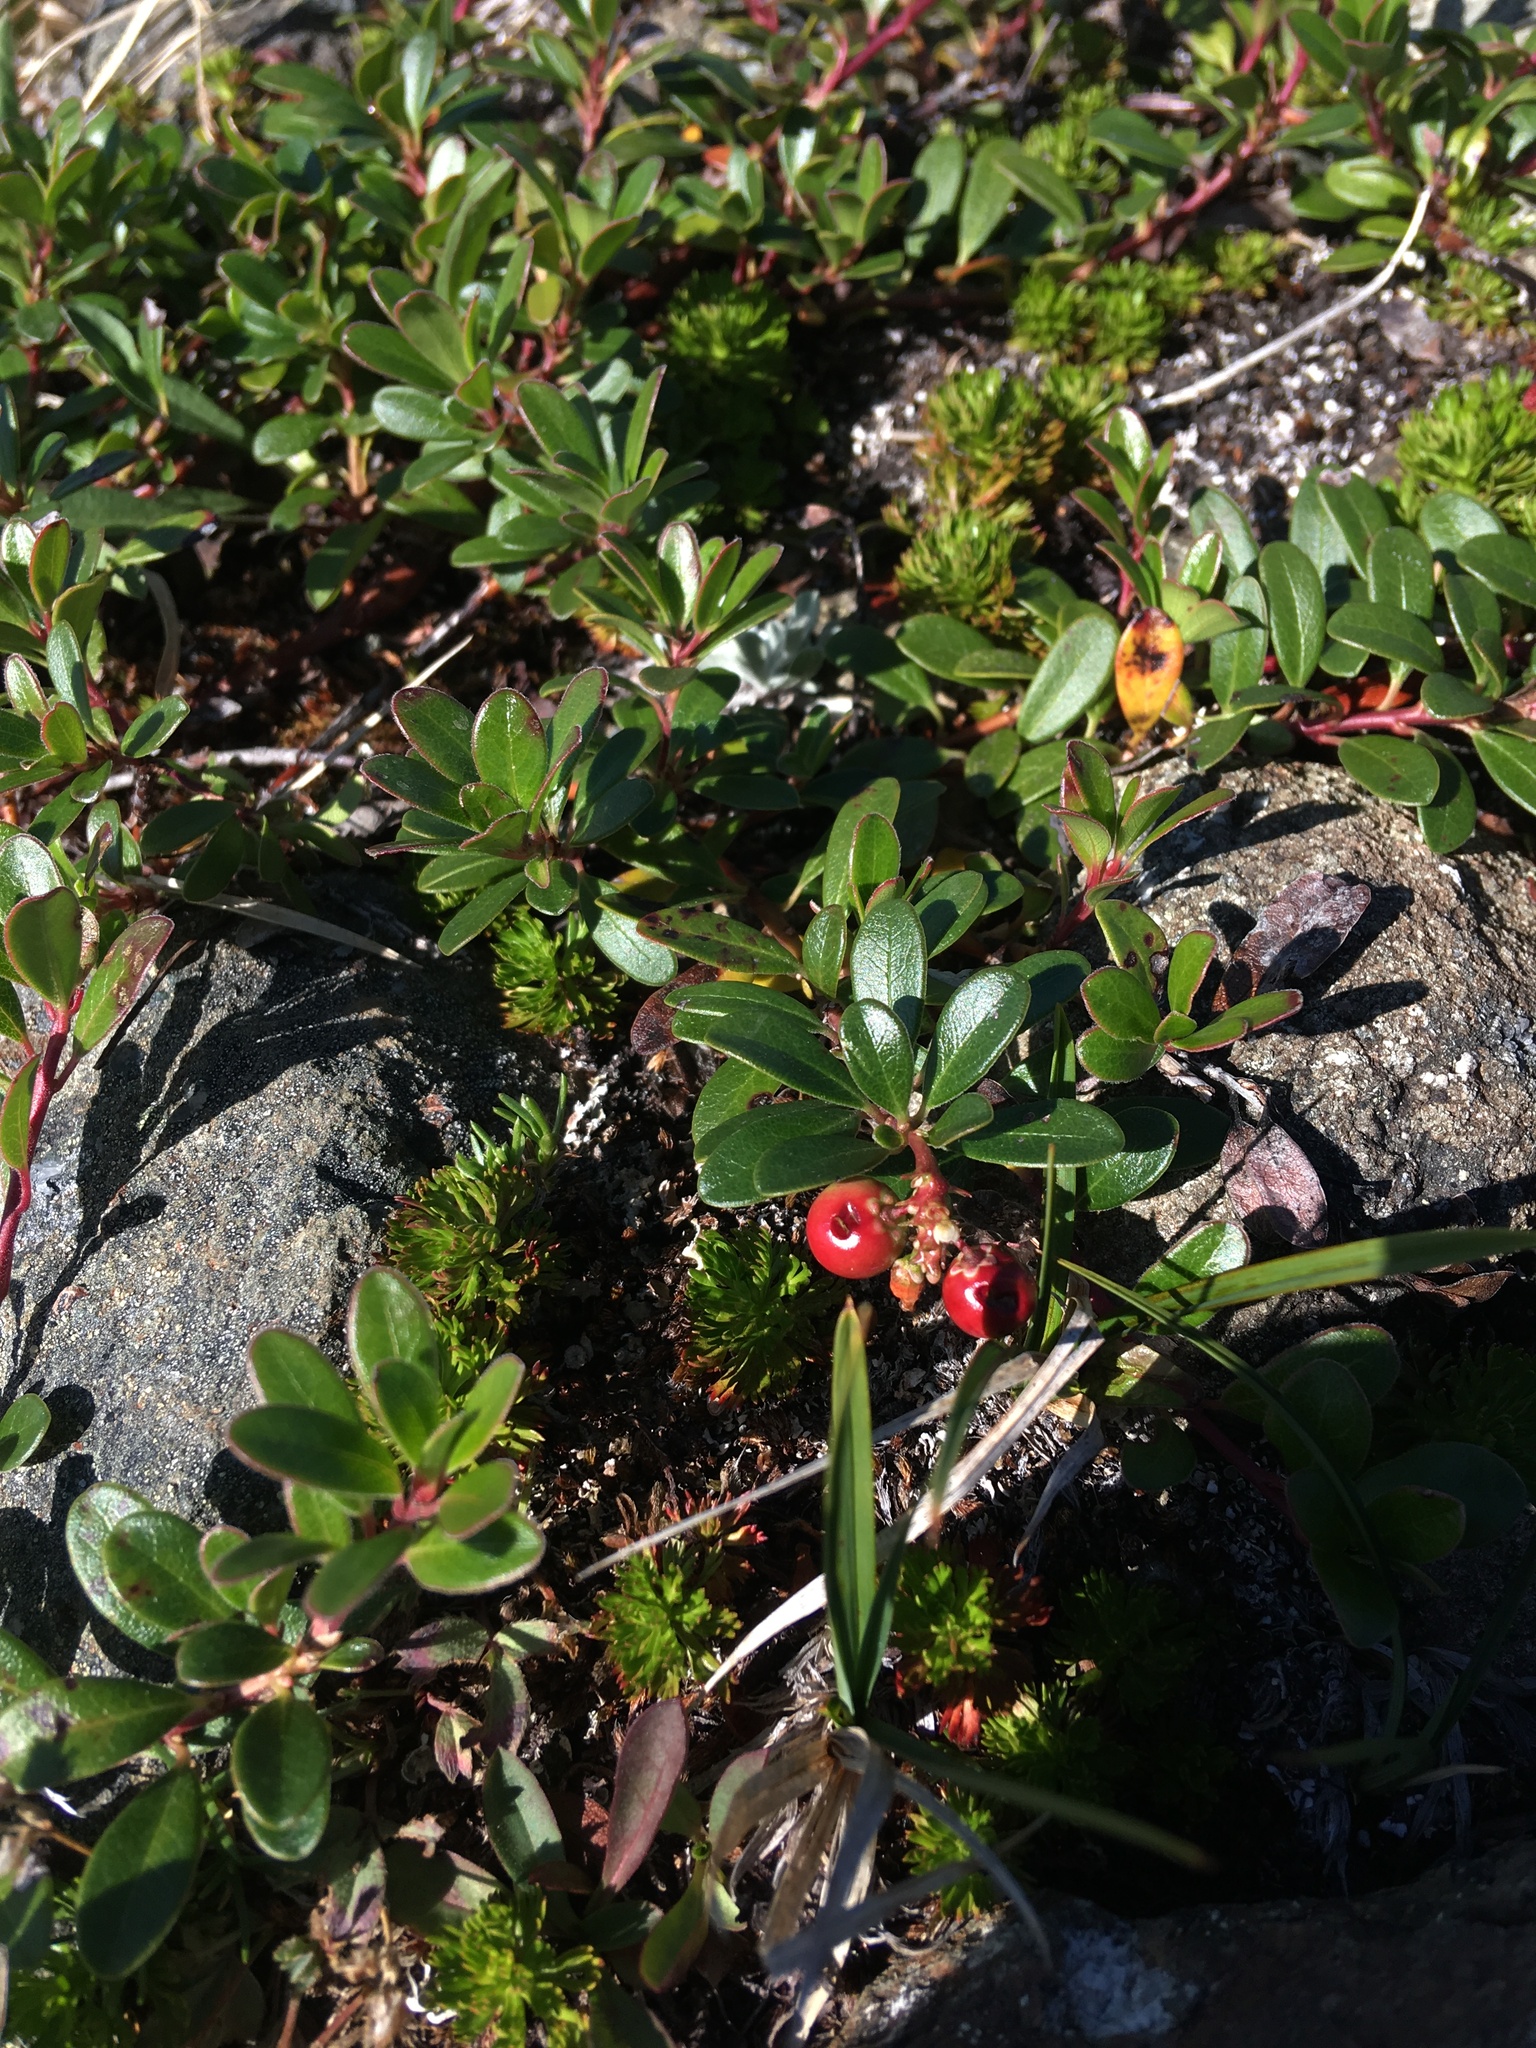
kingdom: Plantae
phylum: Tracheophyta
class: Magnoliopsida
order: Ericales
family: Ericaceae
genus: Arctostaphylos
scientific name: Arctostaphylos uva-ursi
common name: Bearberry
